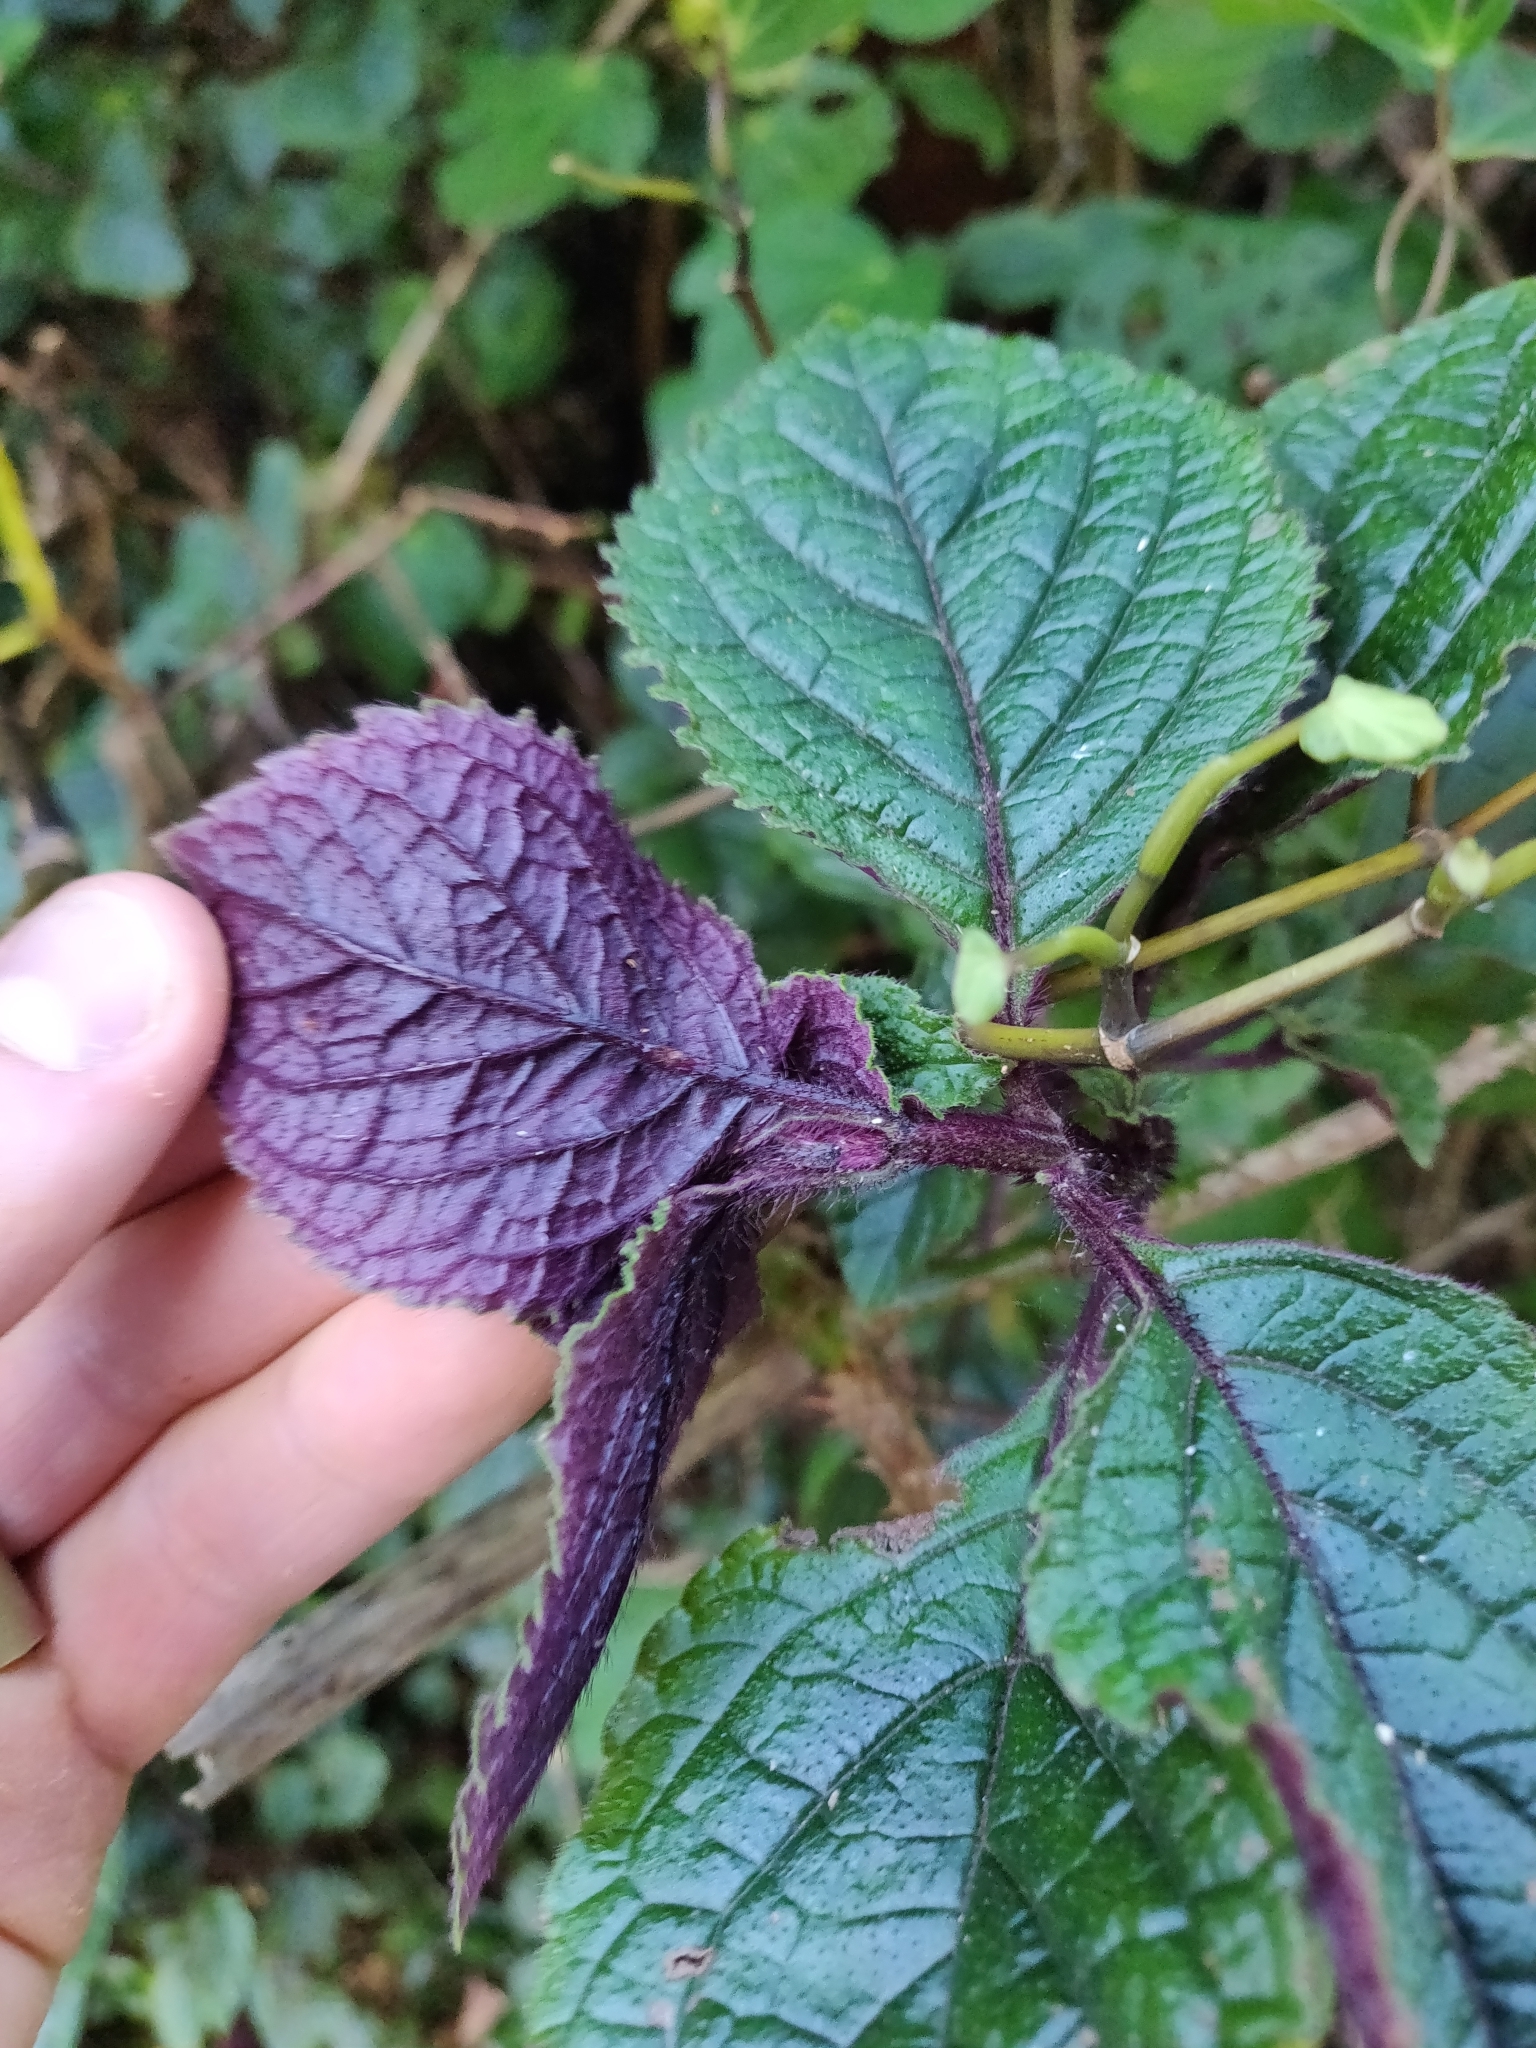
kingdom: Plantae
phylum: Tracheophyta
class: Magnoliopsida
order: Lamiales
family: Lamiaceae
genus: Plectranthus
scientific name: Plectranthus ciliatus
